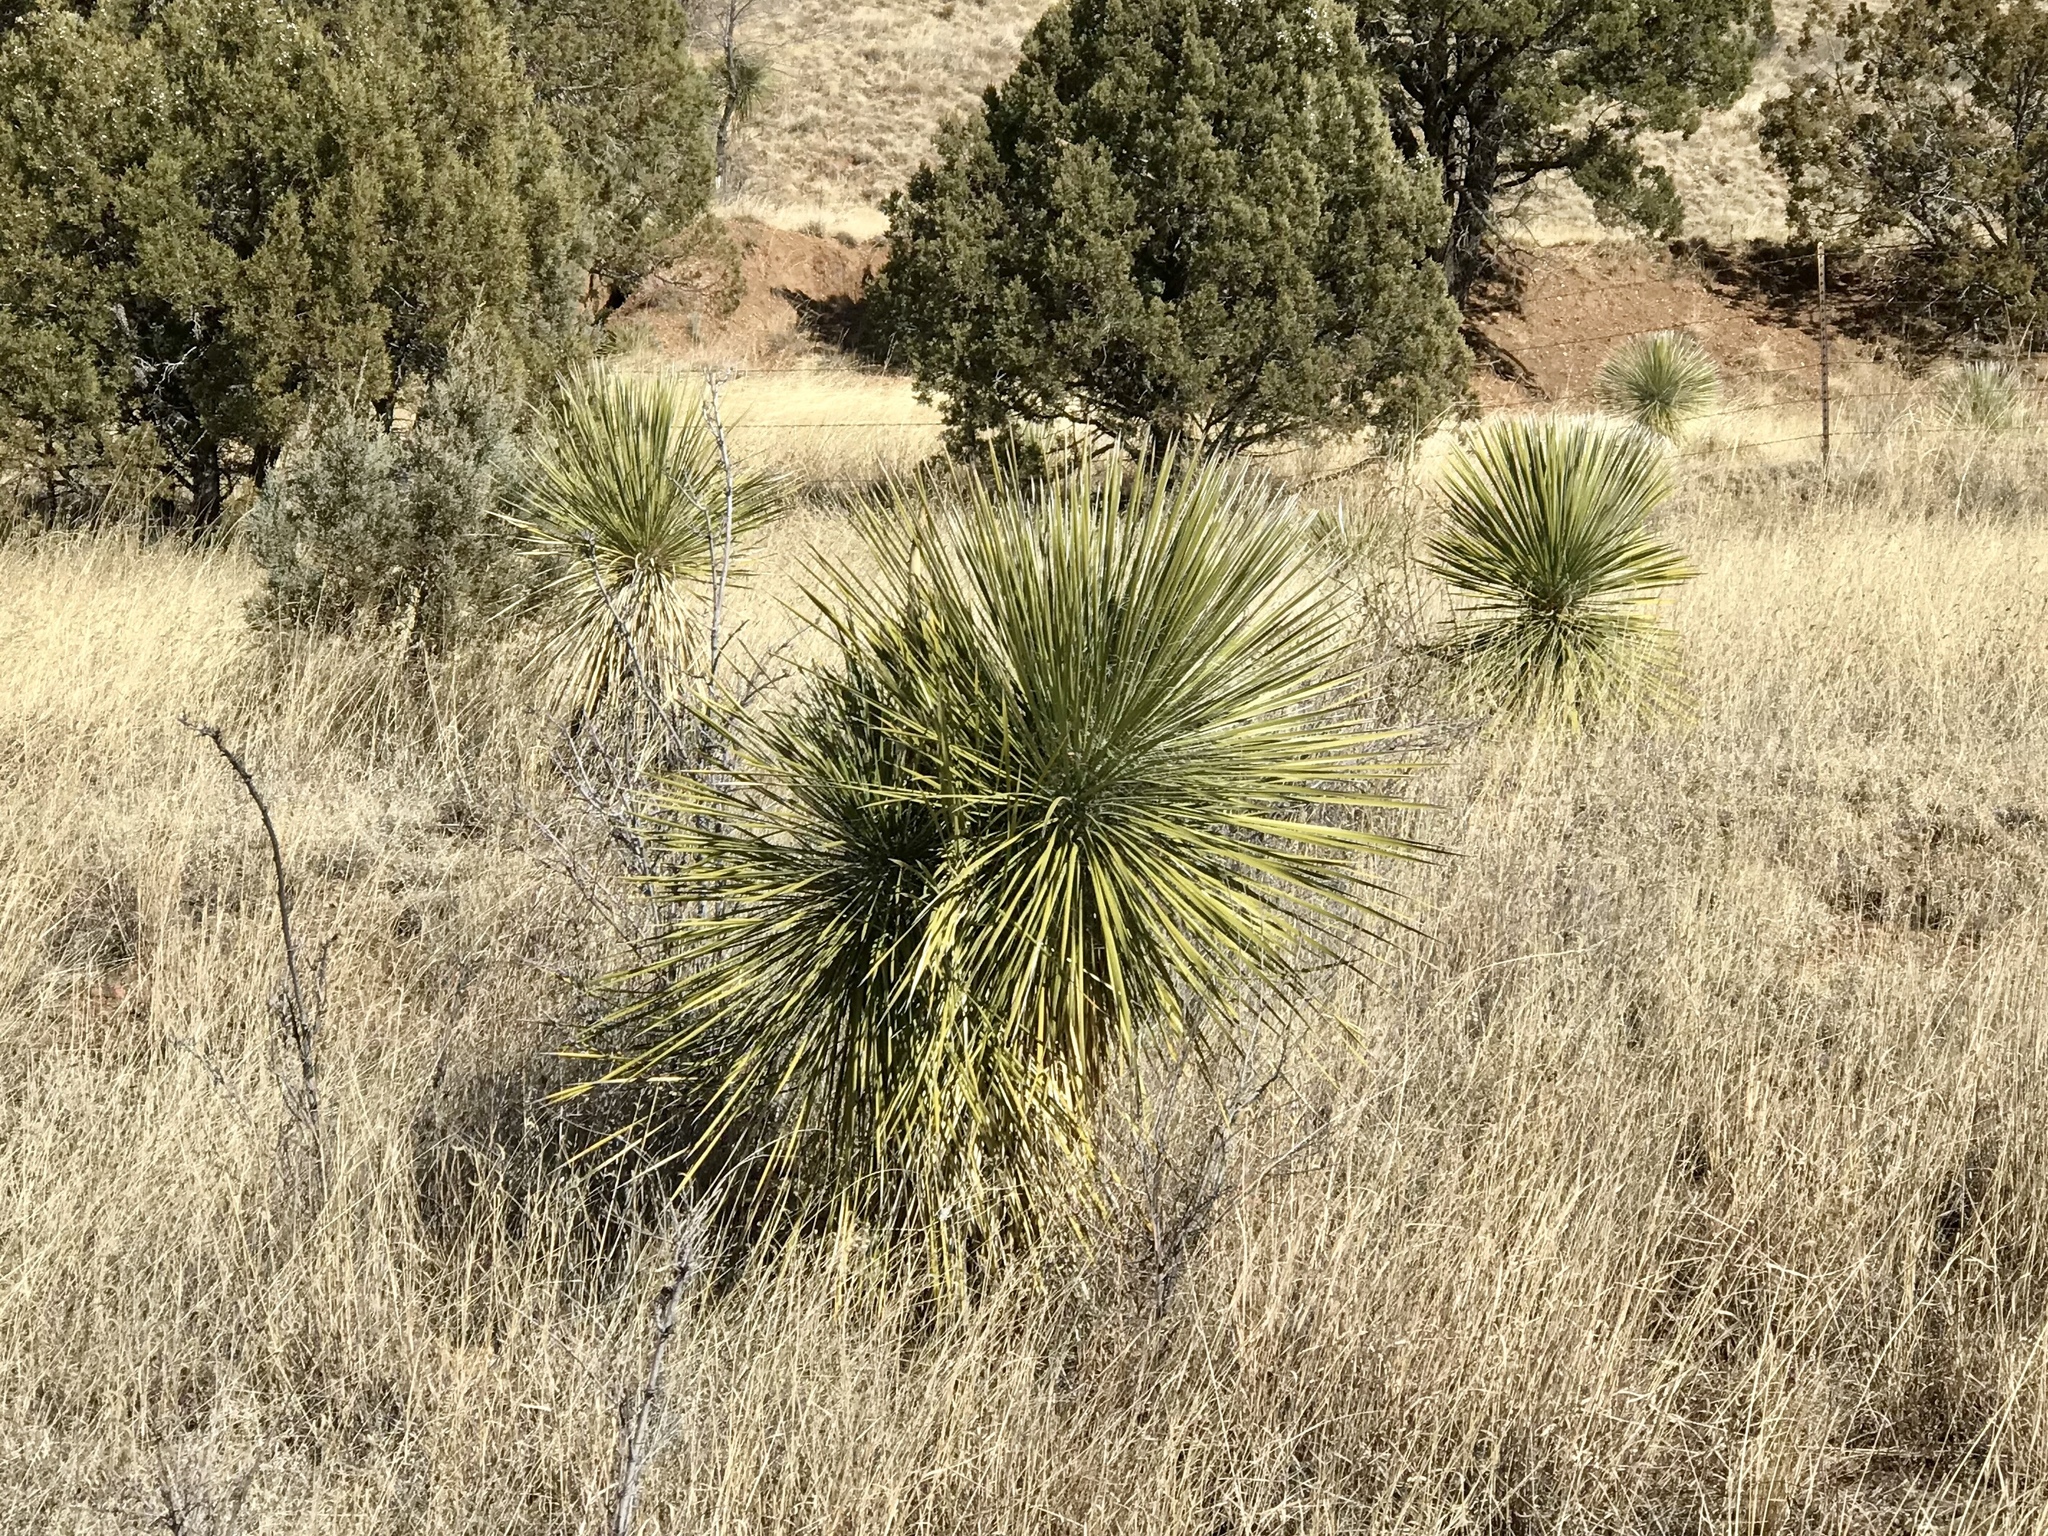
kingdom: Plantae
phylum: Tracheophyta
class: Liliopsida
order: Asparagales
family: Asparagaceae
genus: Yucca
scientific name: Yucca elata
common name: Palmella
